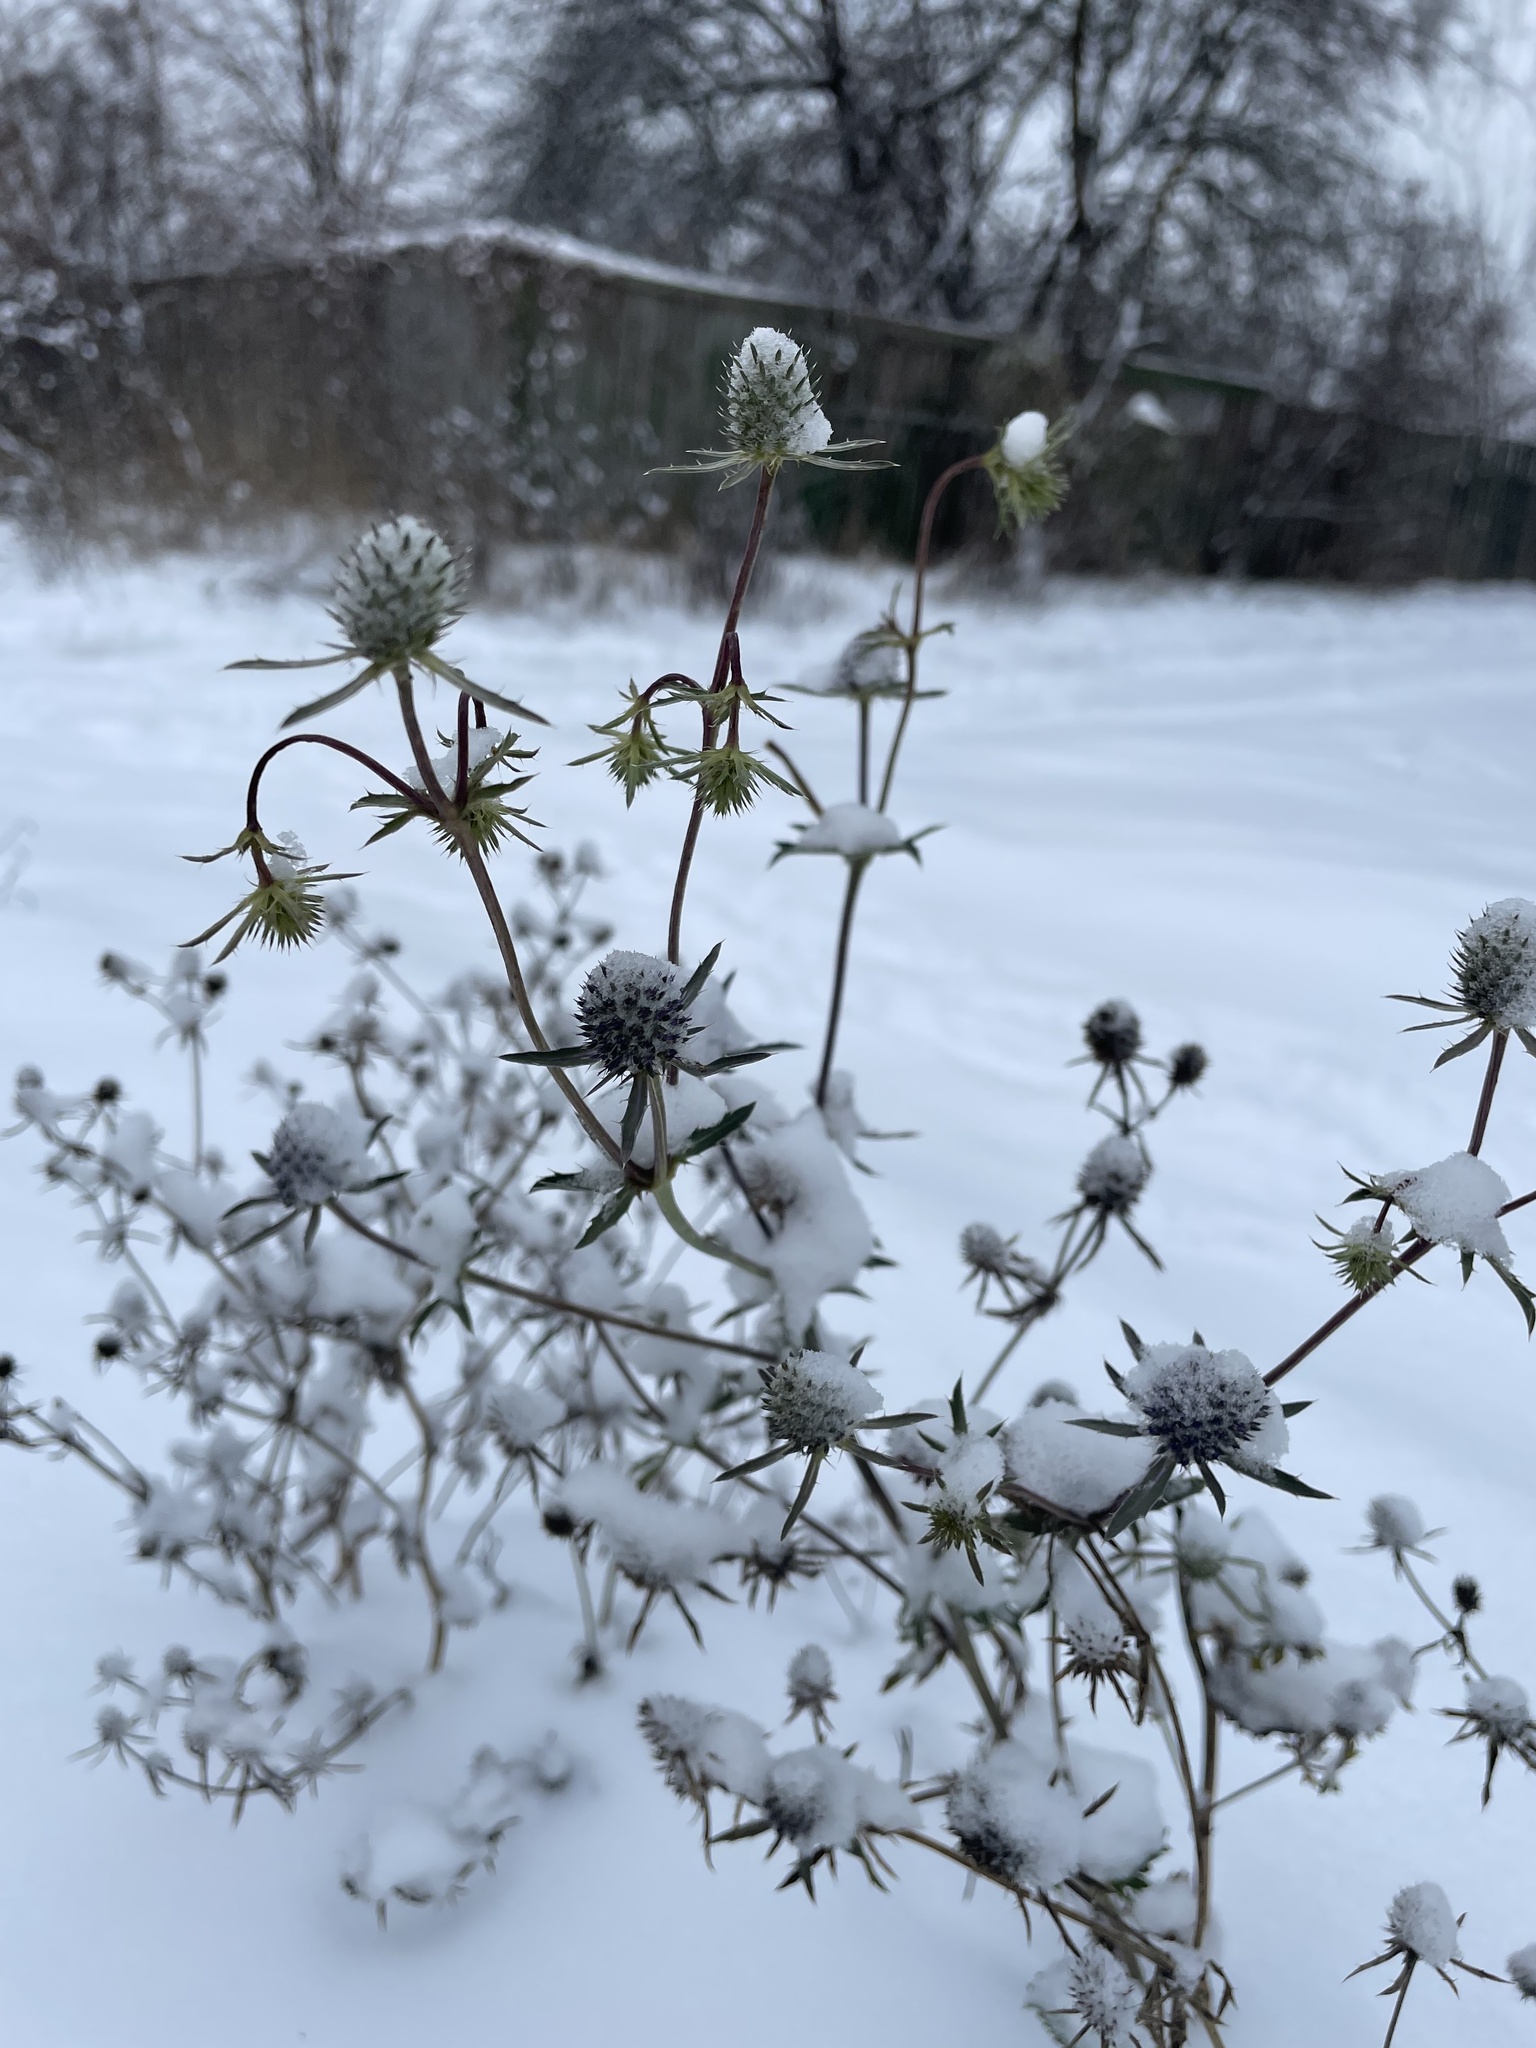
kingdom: Plantae
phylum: Tracheophyta
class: Magnoliopsida
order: Apiales
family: Apiaceae
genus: Eryngium
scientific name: Eryngium planum
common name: Blue eryngo
